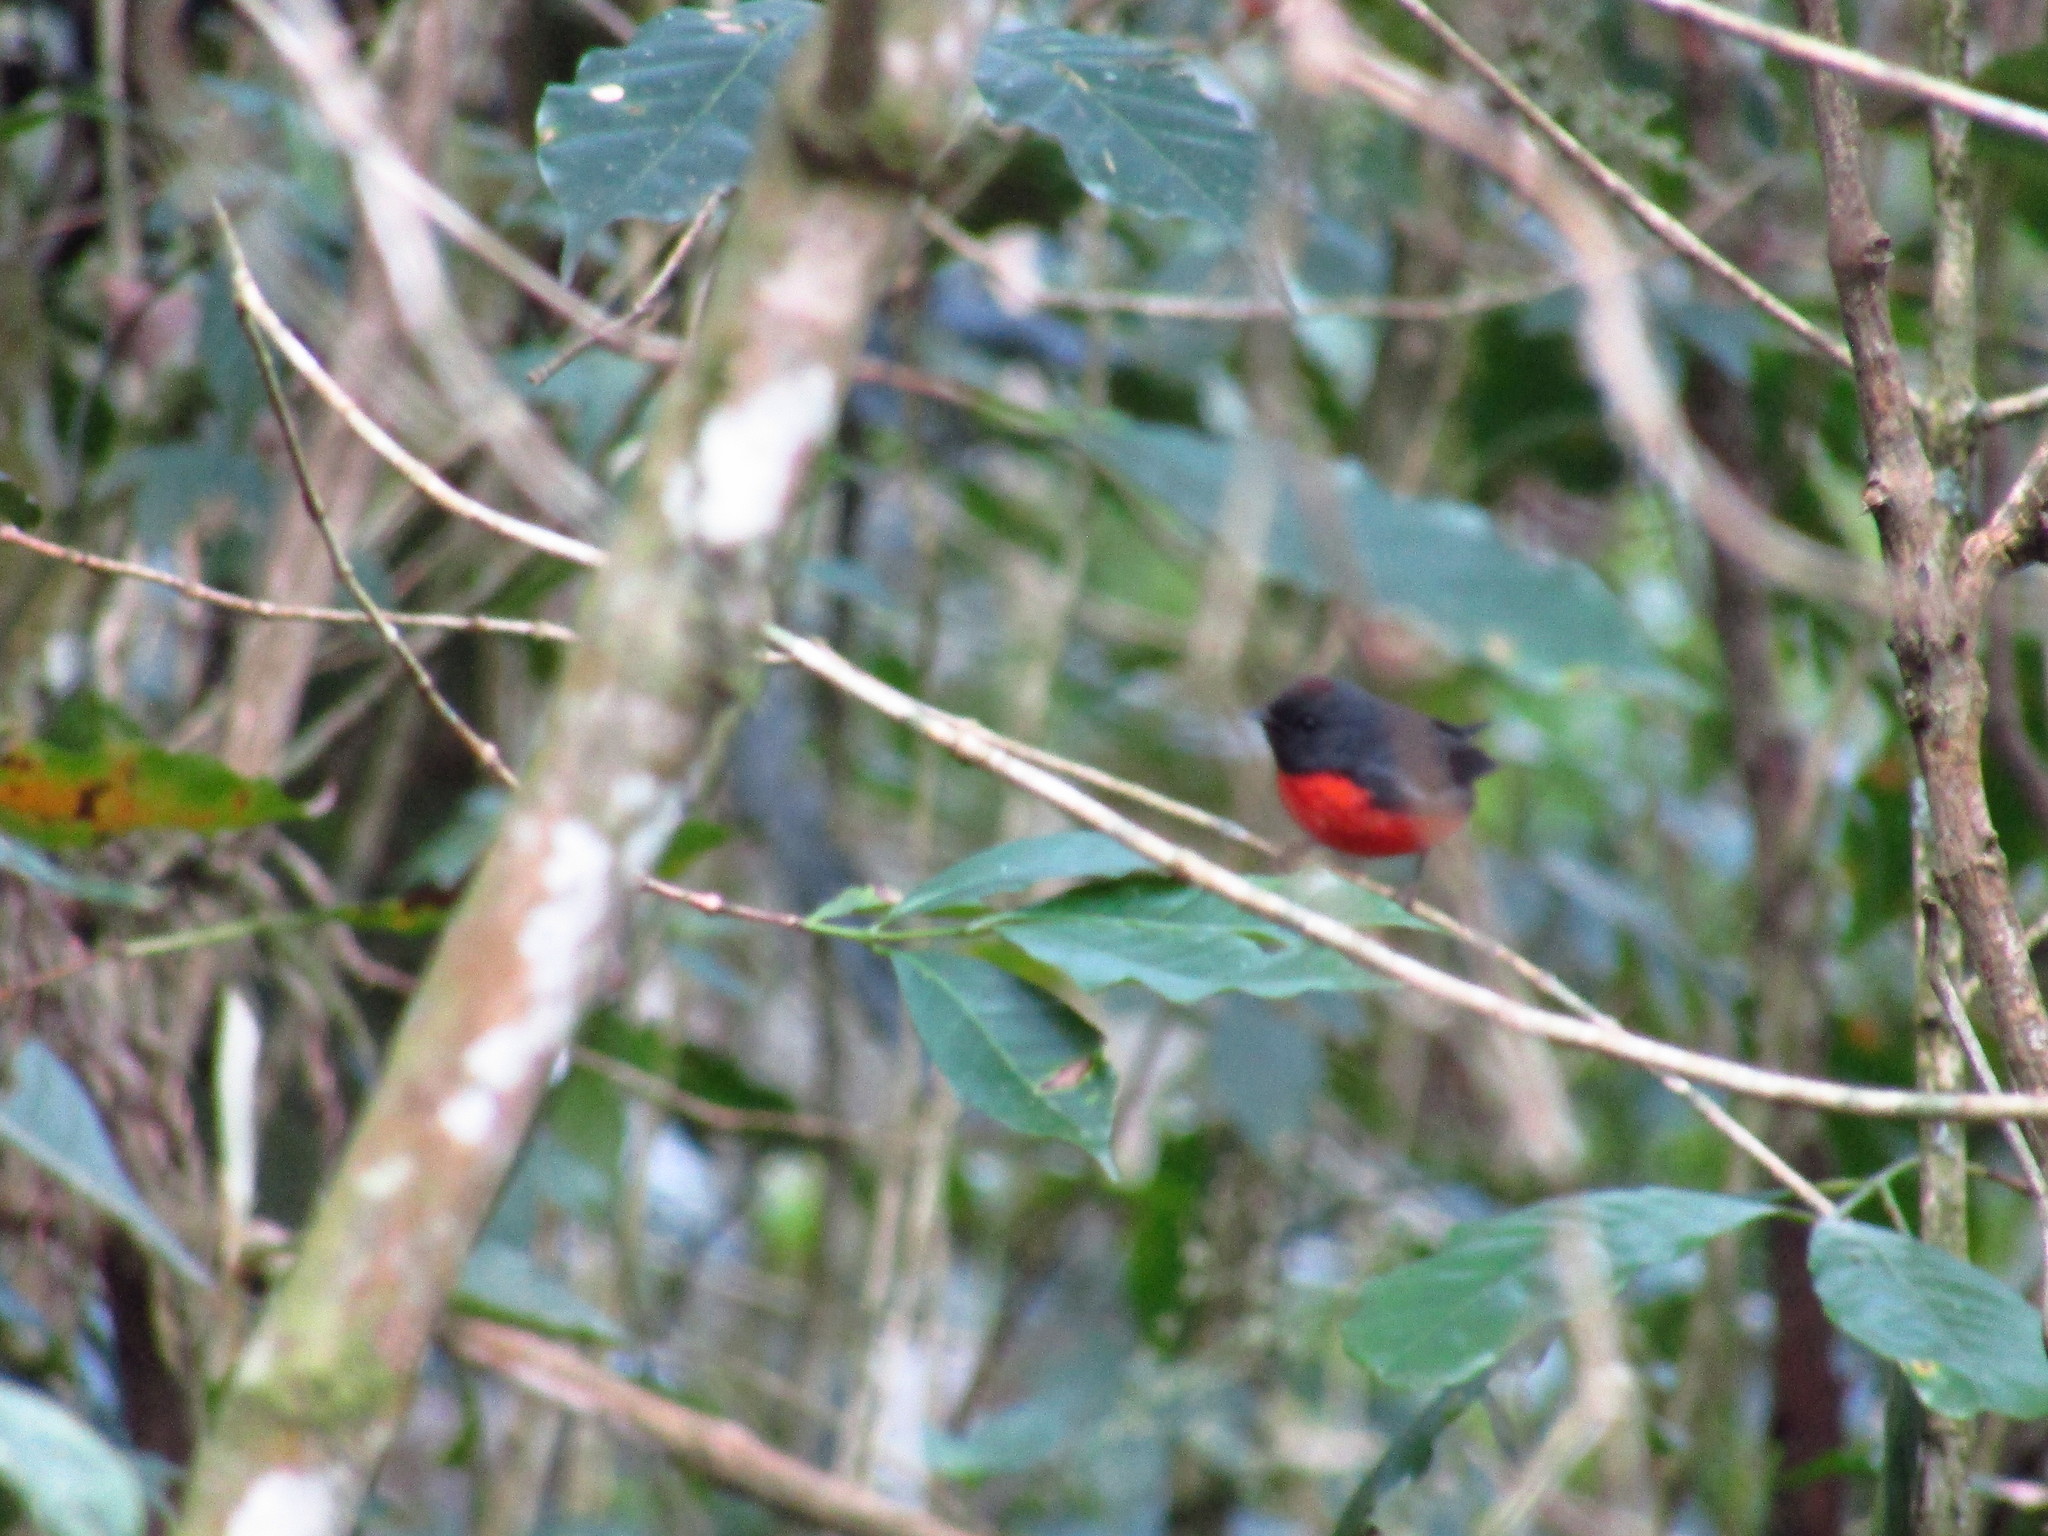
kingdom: Animalia
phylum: Chordata
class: Aves
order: Passeriformes
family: Parulidae
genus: Myioborus
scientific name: Myioborus miniatus
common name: Slate-throated redstart
